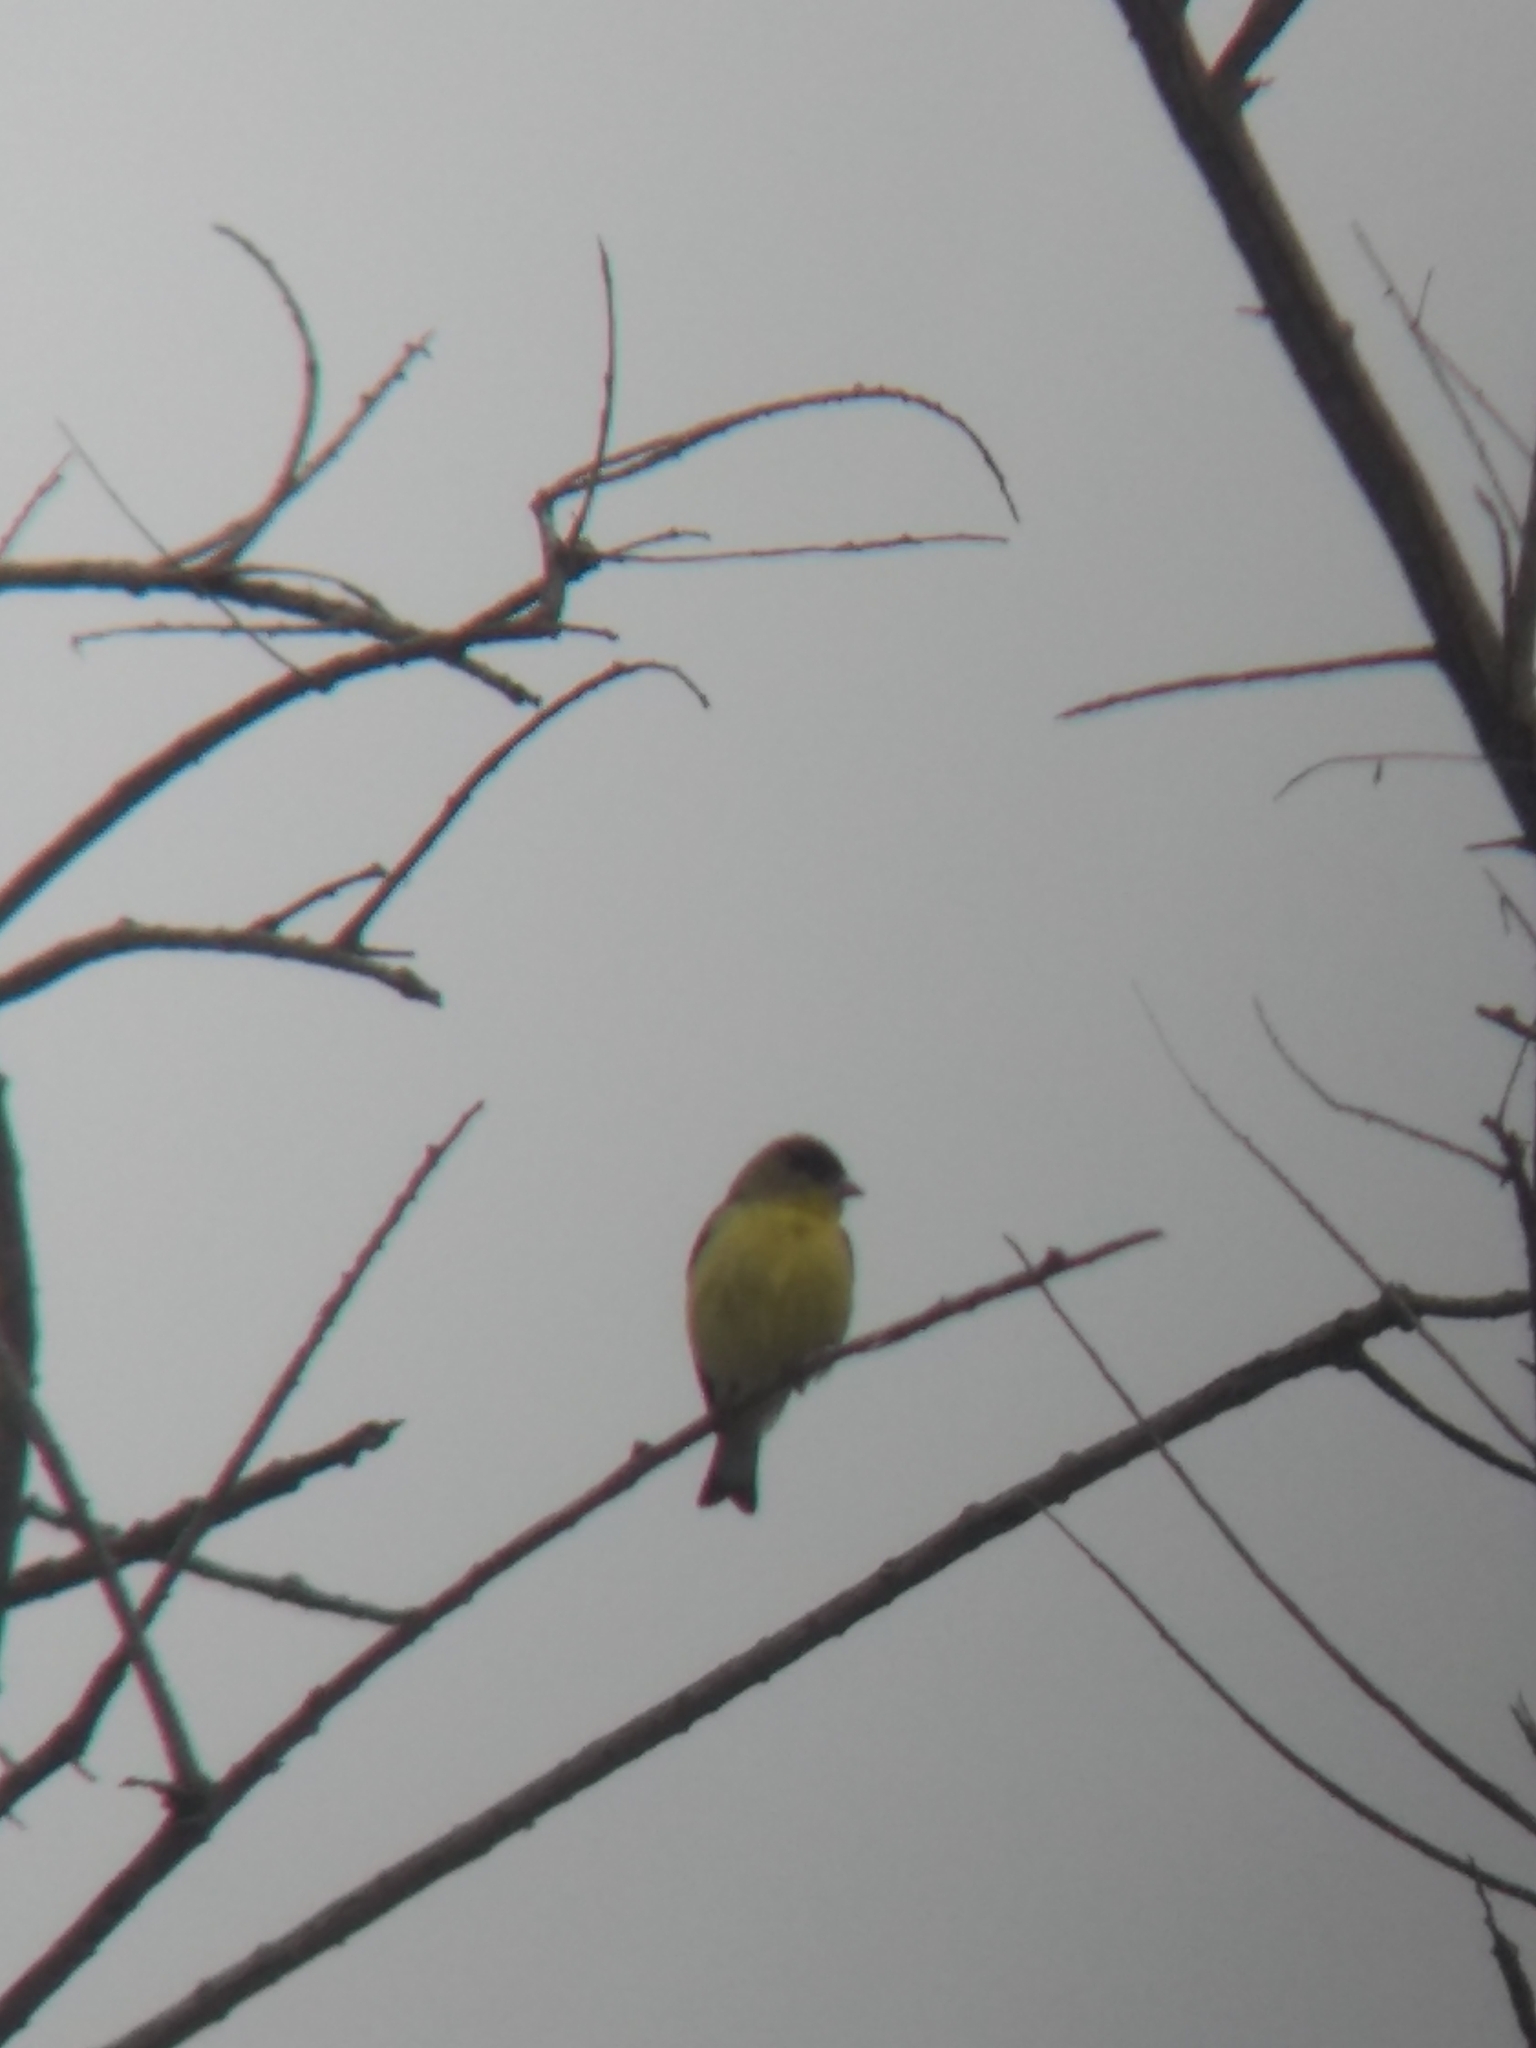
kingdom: Animalia
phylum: Chordata
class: Aves
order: Passeriformes
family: Fringillidae
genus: Spinus
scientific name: Spinus psaltria
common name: Lesser goldfinch
